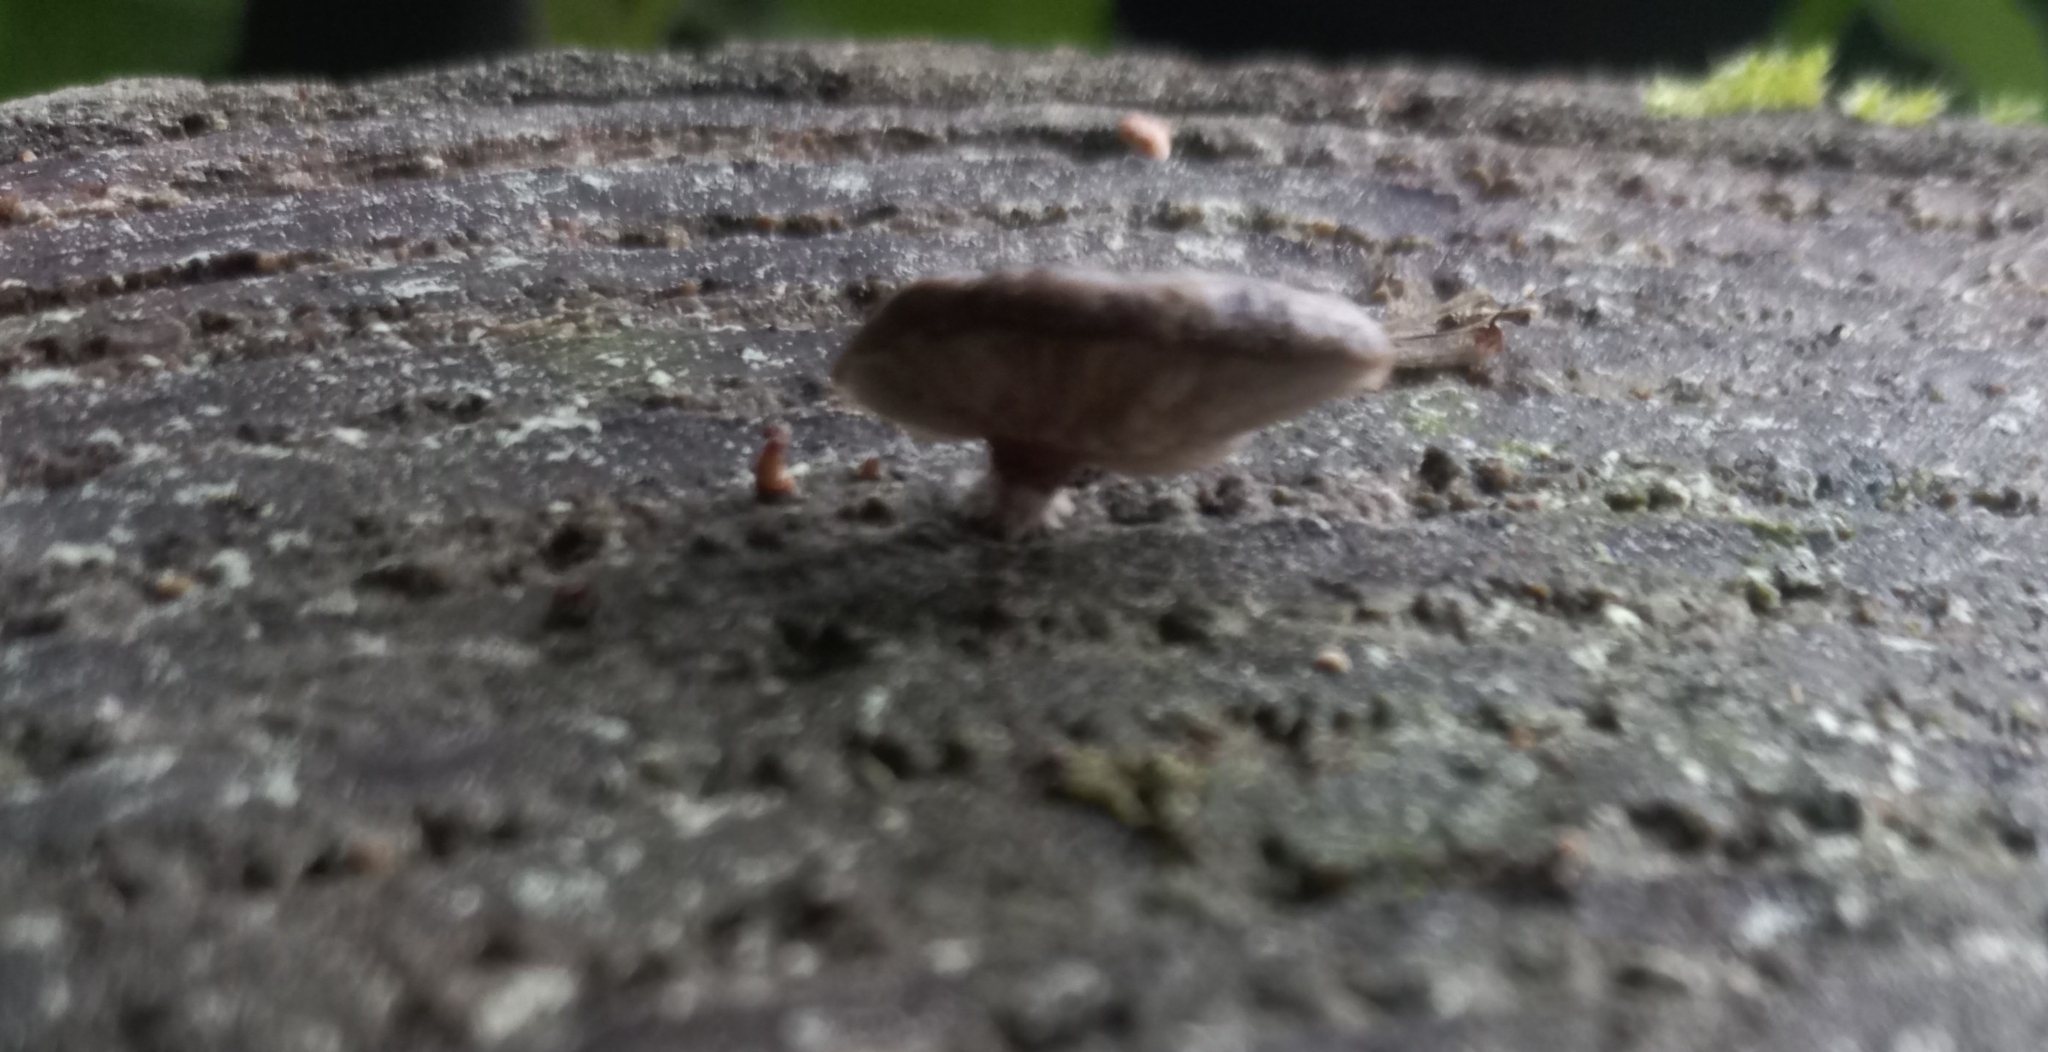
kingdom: Fungi
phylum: Basidiomycota
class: Agaricomycetes
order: Agaricales
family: Mycenaceae
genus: Panellus
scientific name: Panellus longinquus
